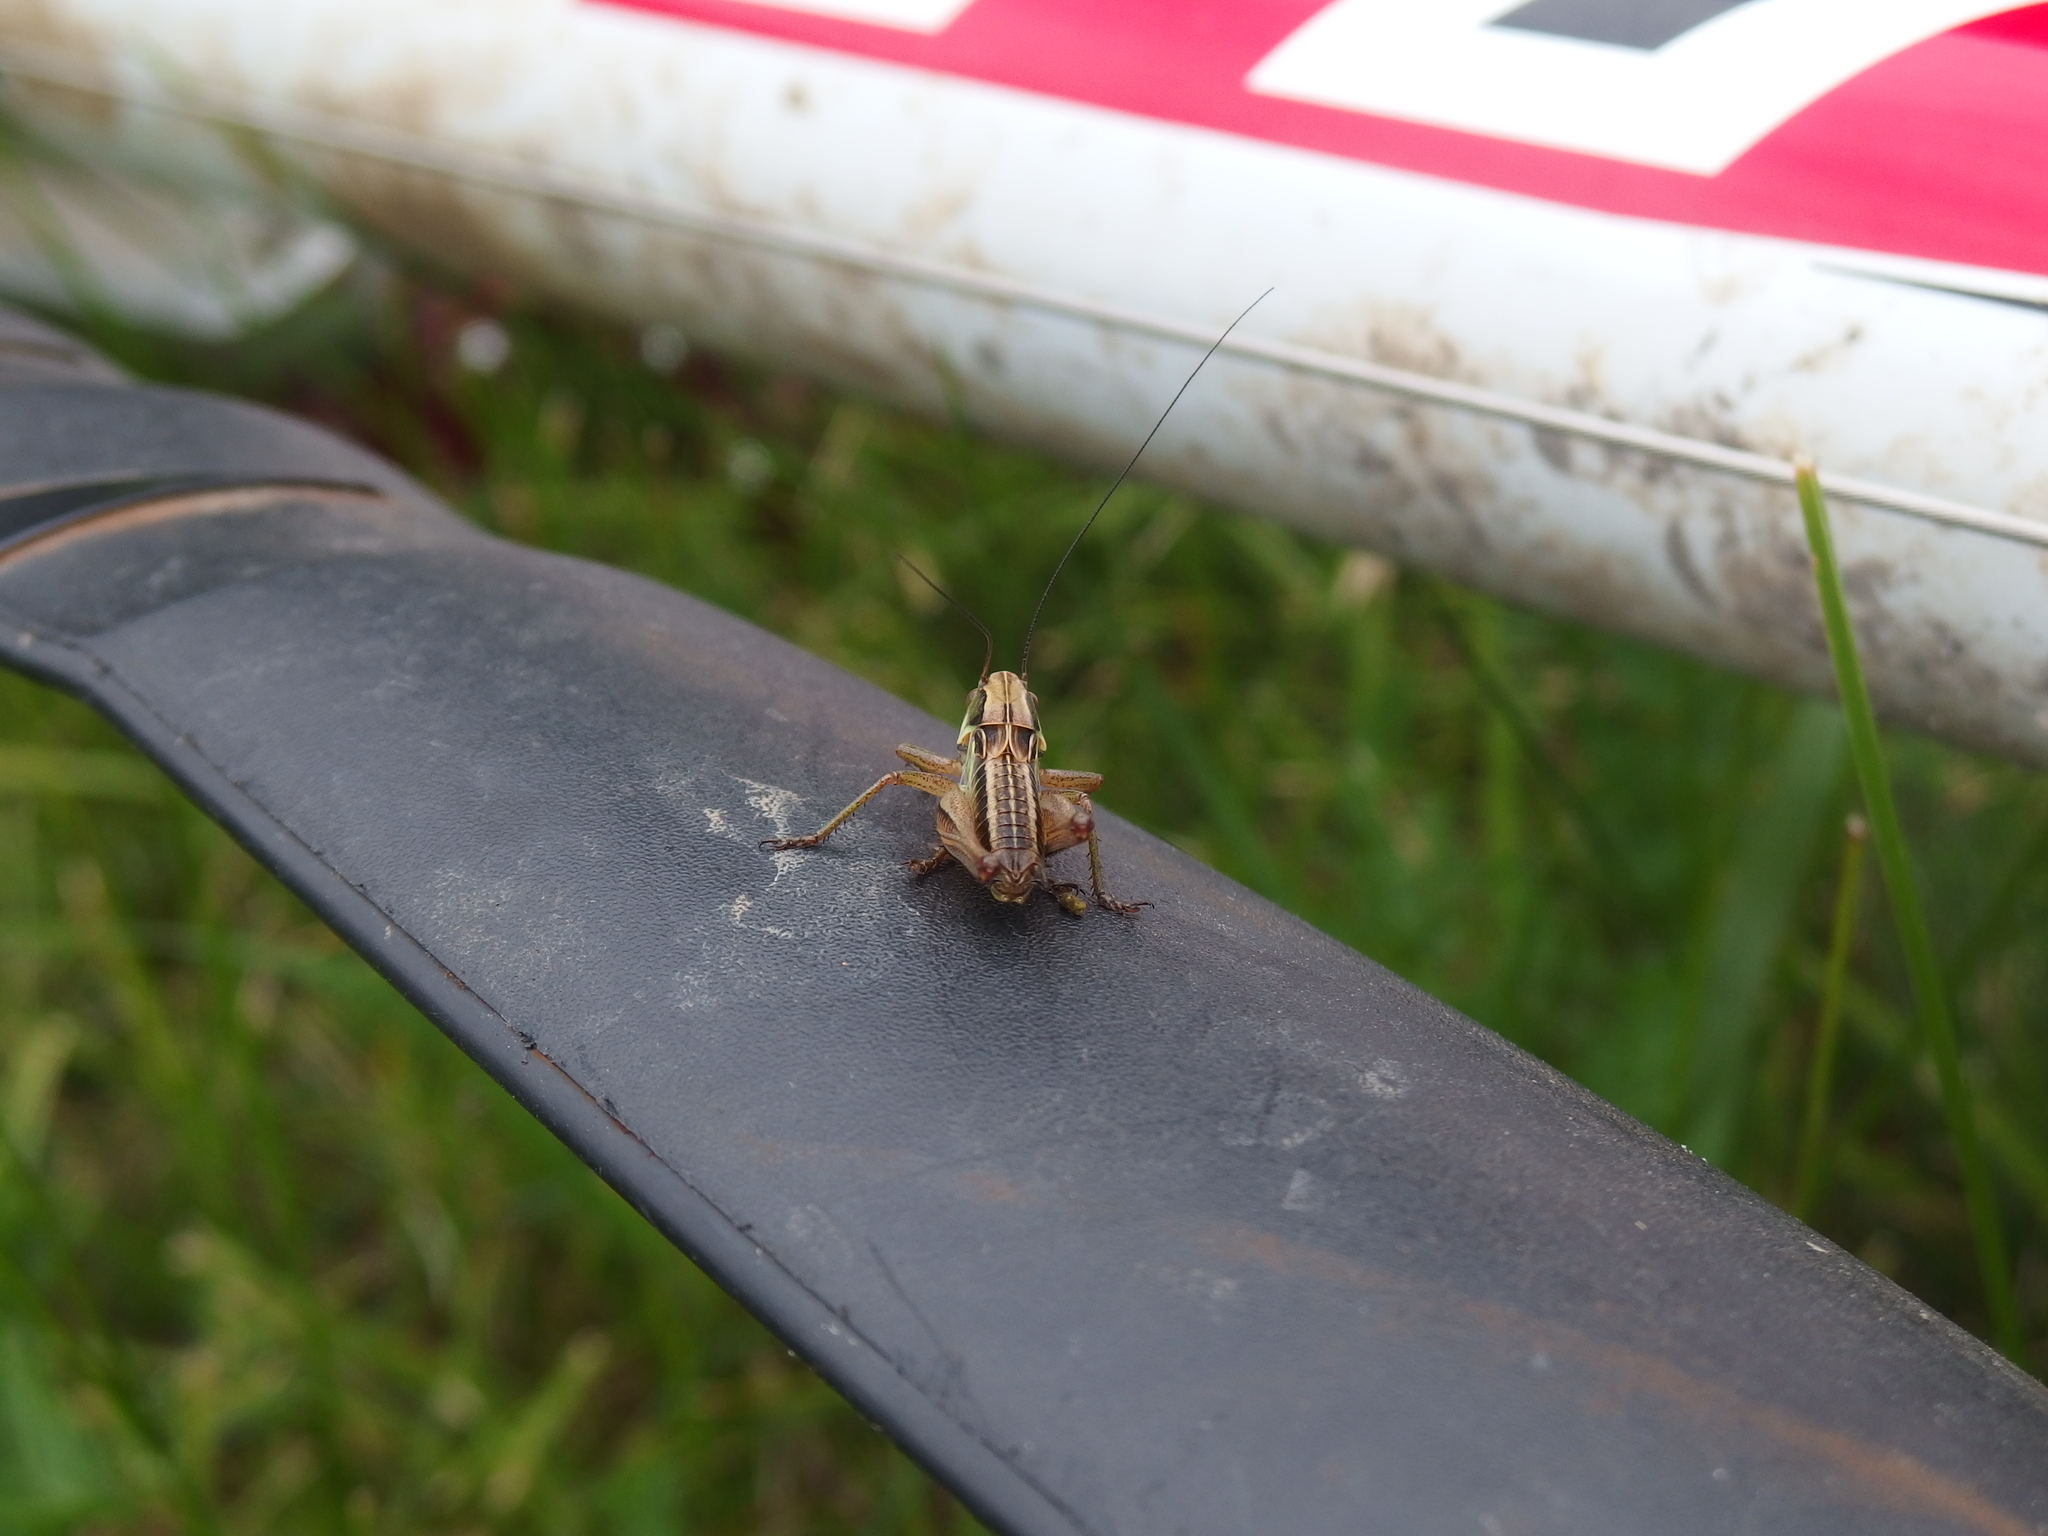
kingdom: Animalia
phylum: Arthropoda
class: Insecta
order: Orthoptera
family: Tettigoniidae
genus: Roeseliana
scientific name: Roeseliana roeselii
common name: Roesel's bush cricket
